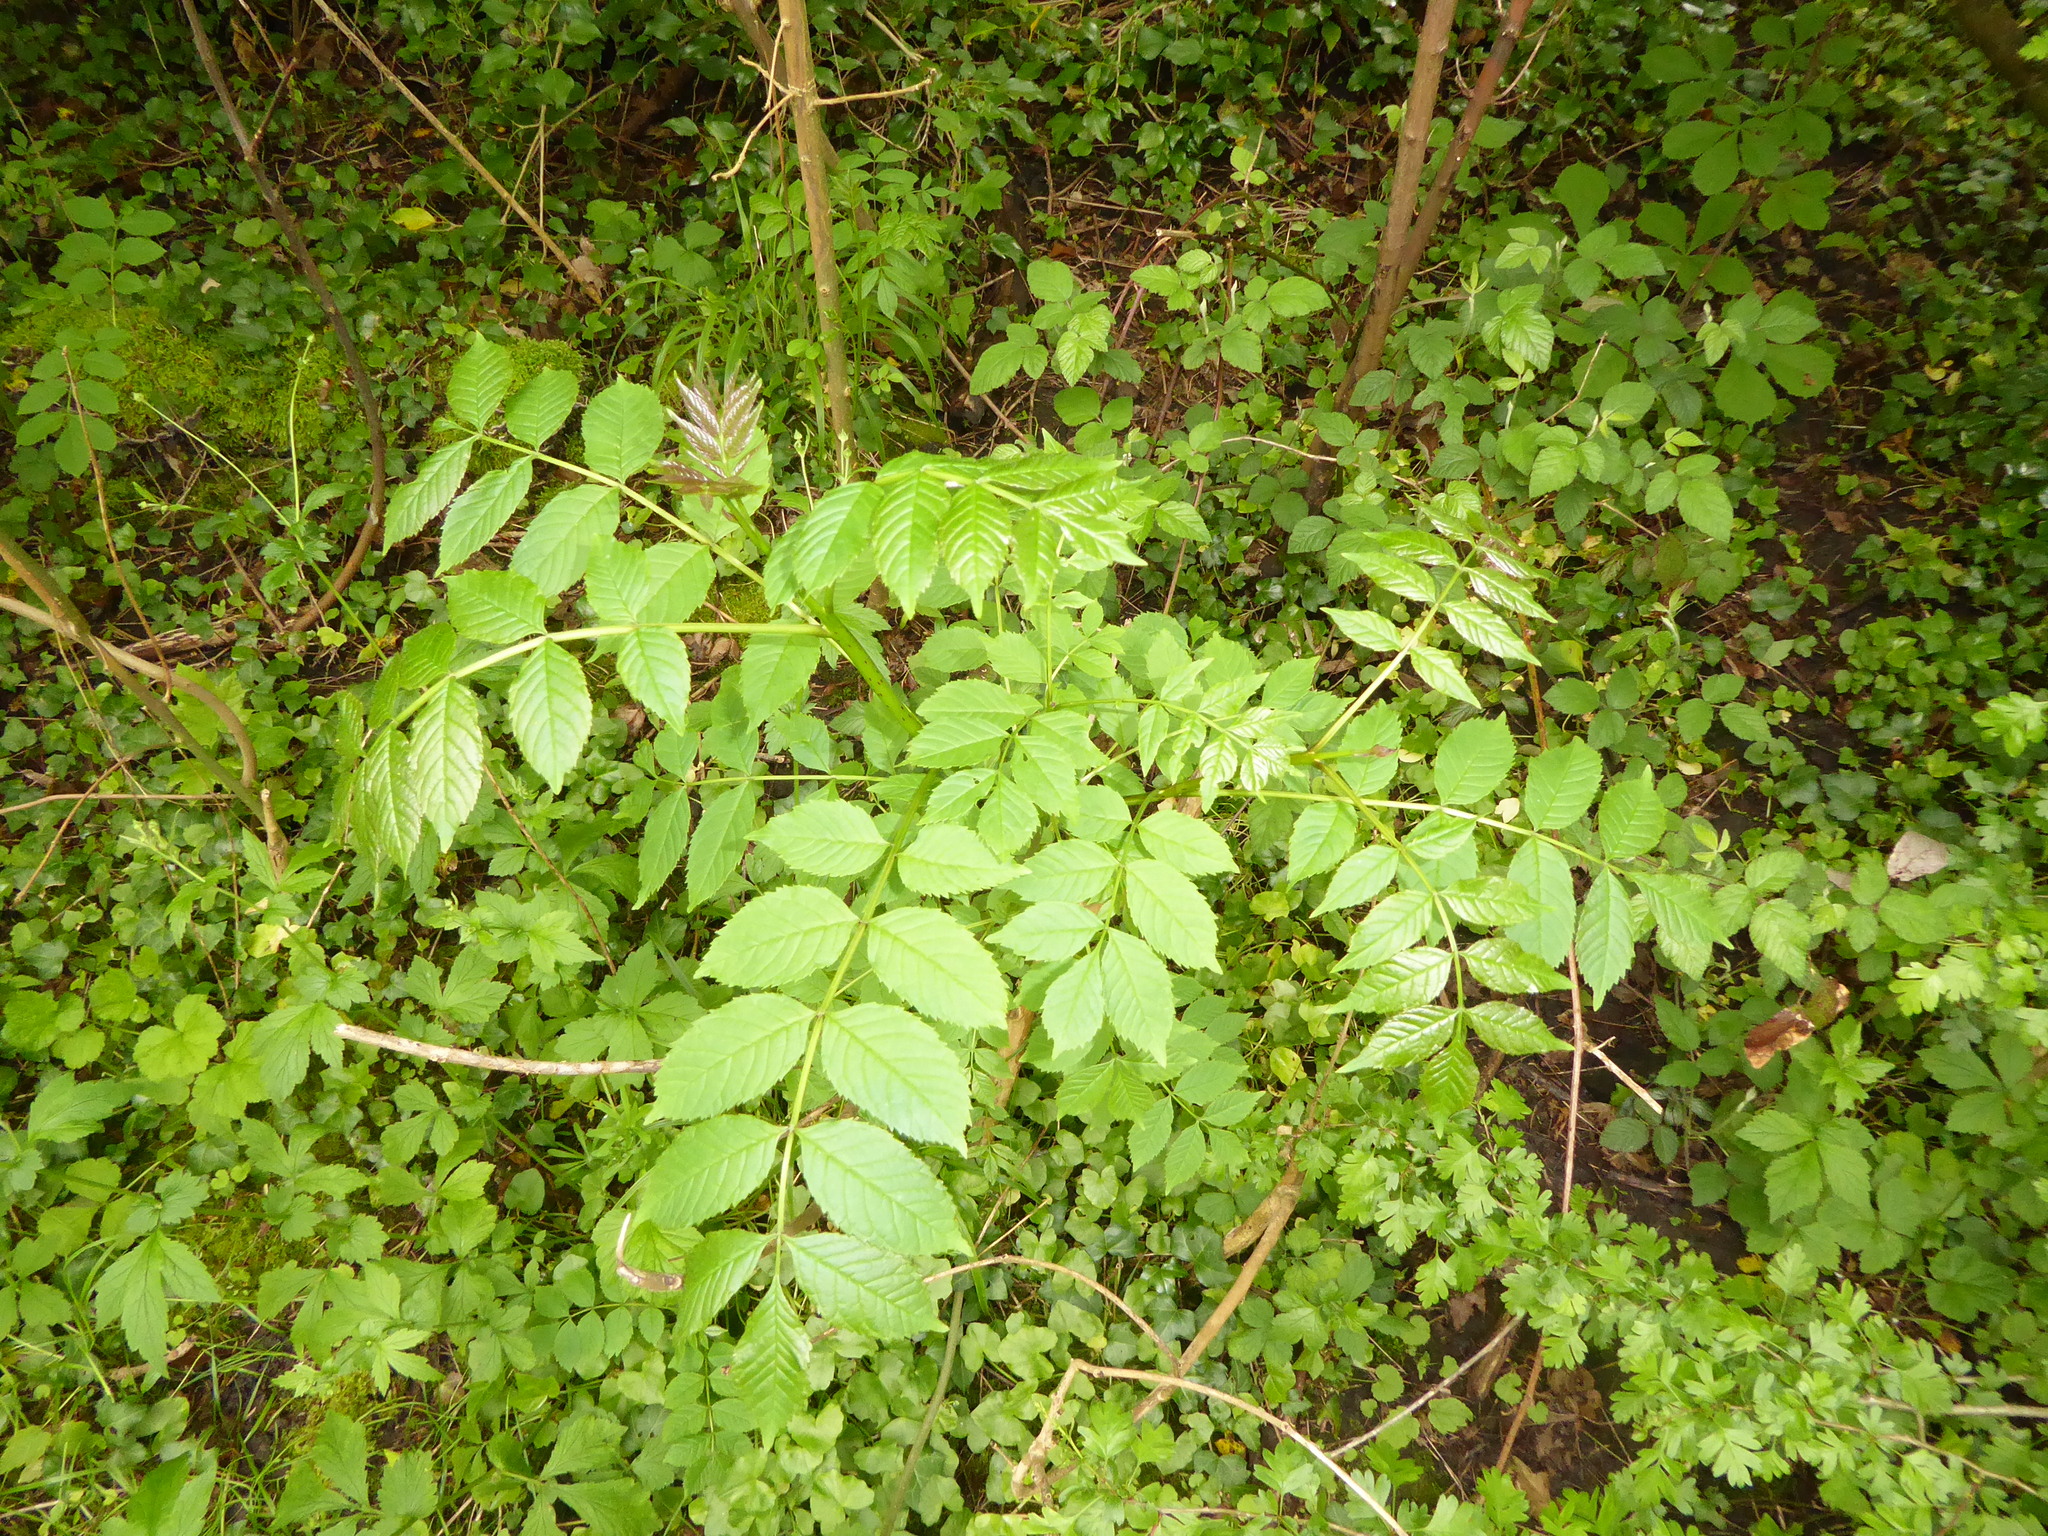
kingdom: Plantae
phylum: Tracheophyta
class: Magnoliopsida
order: Lamiales
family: Oleaceae
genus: Fraxinus
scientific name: Fraxinus excelsior
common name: European ash
